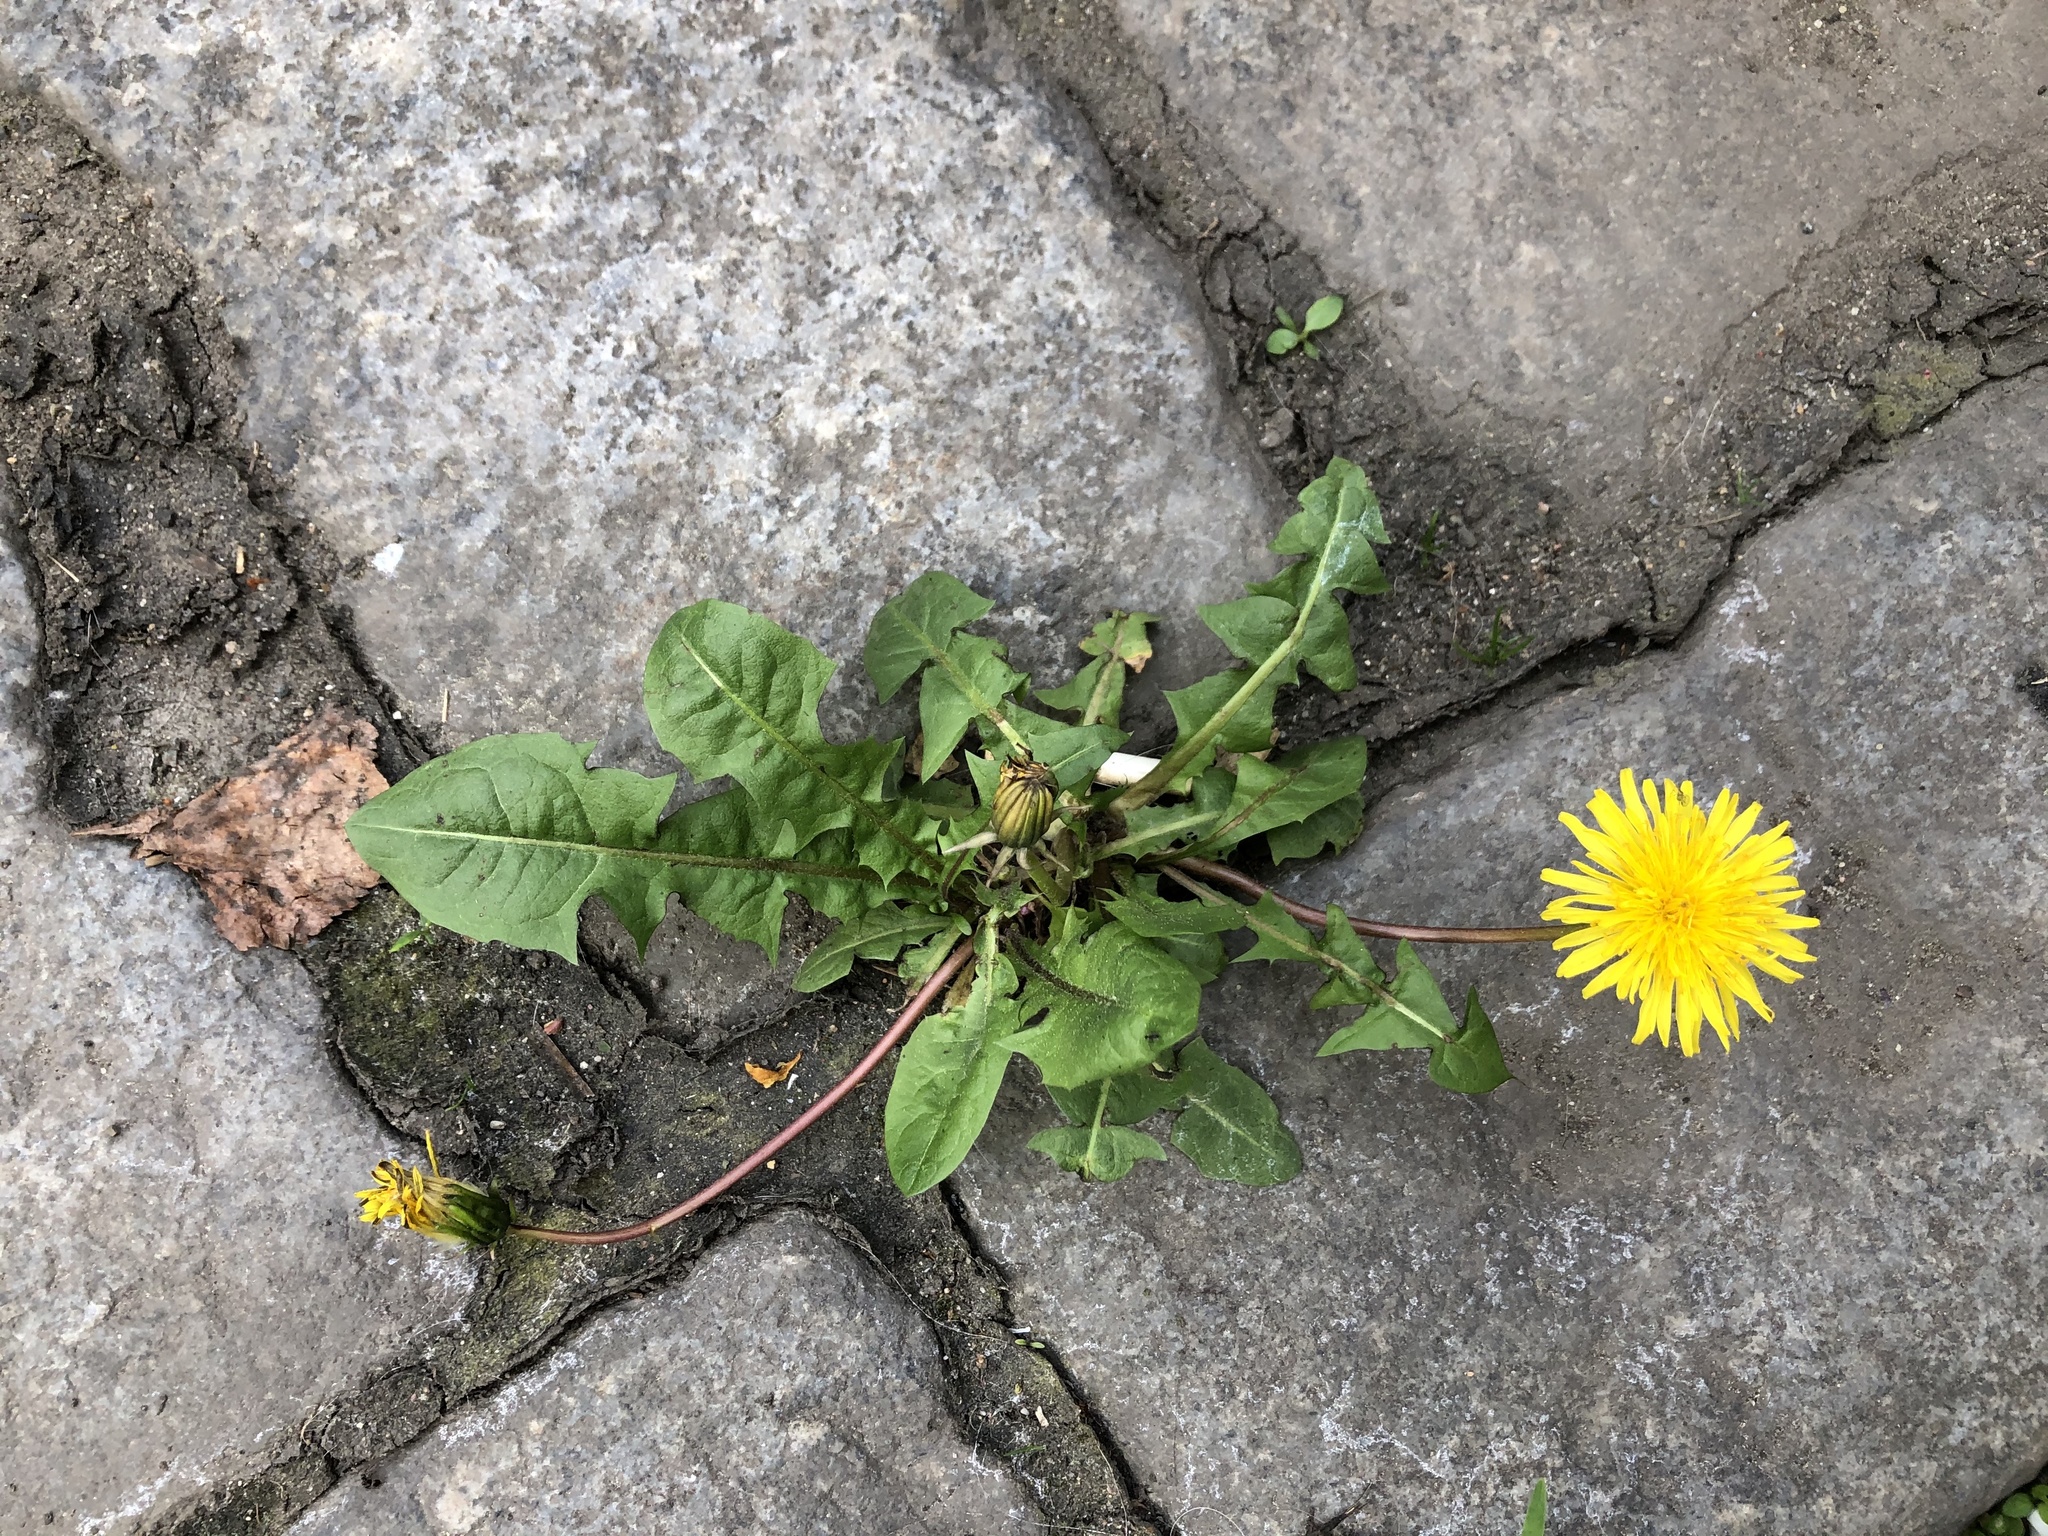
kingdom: Plantae
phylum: Tracheophyta
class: Magnoliopsida
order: Asterales
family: Asteraceae
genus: Taraxacum
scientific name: Taraxacum officinale
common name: Common dandelion
